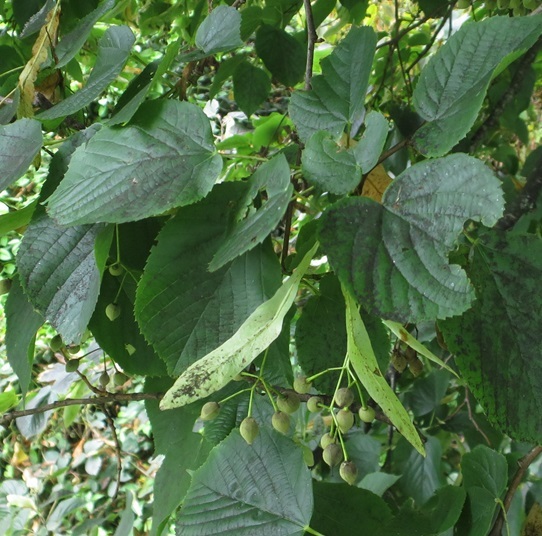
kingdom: Animalia
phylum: Arthropoda
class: Insecta
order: Hemiptera
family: Miridae
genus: Zanchius
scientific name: Zanchius rubicrux
